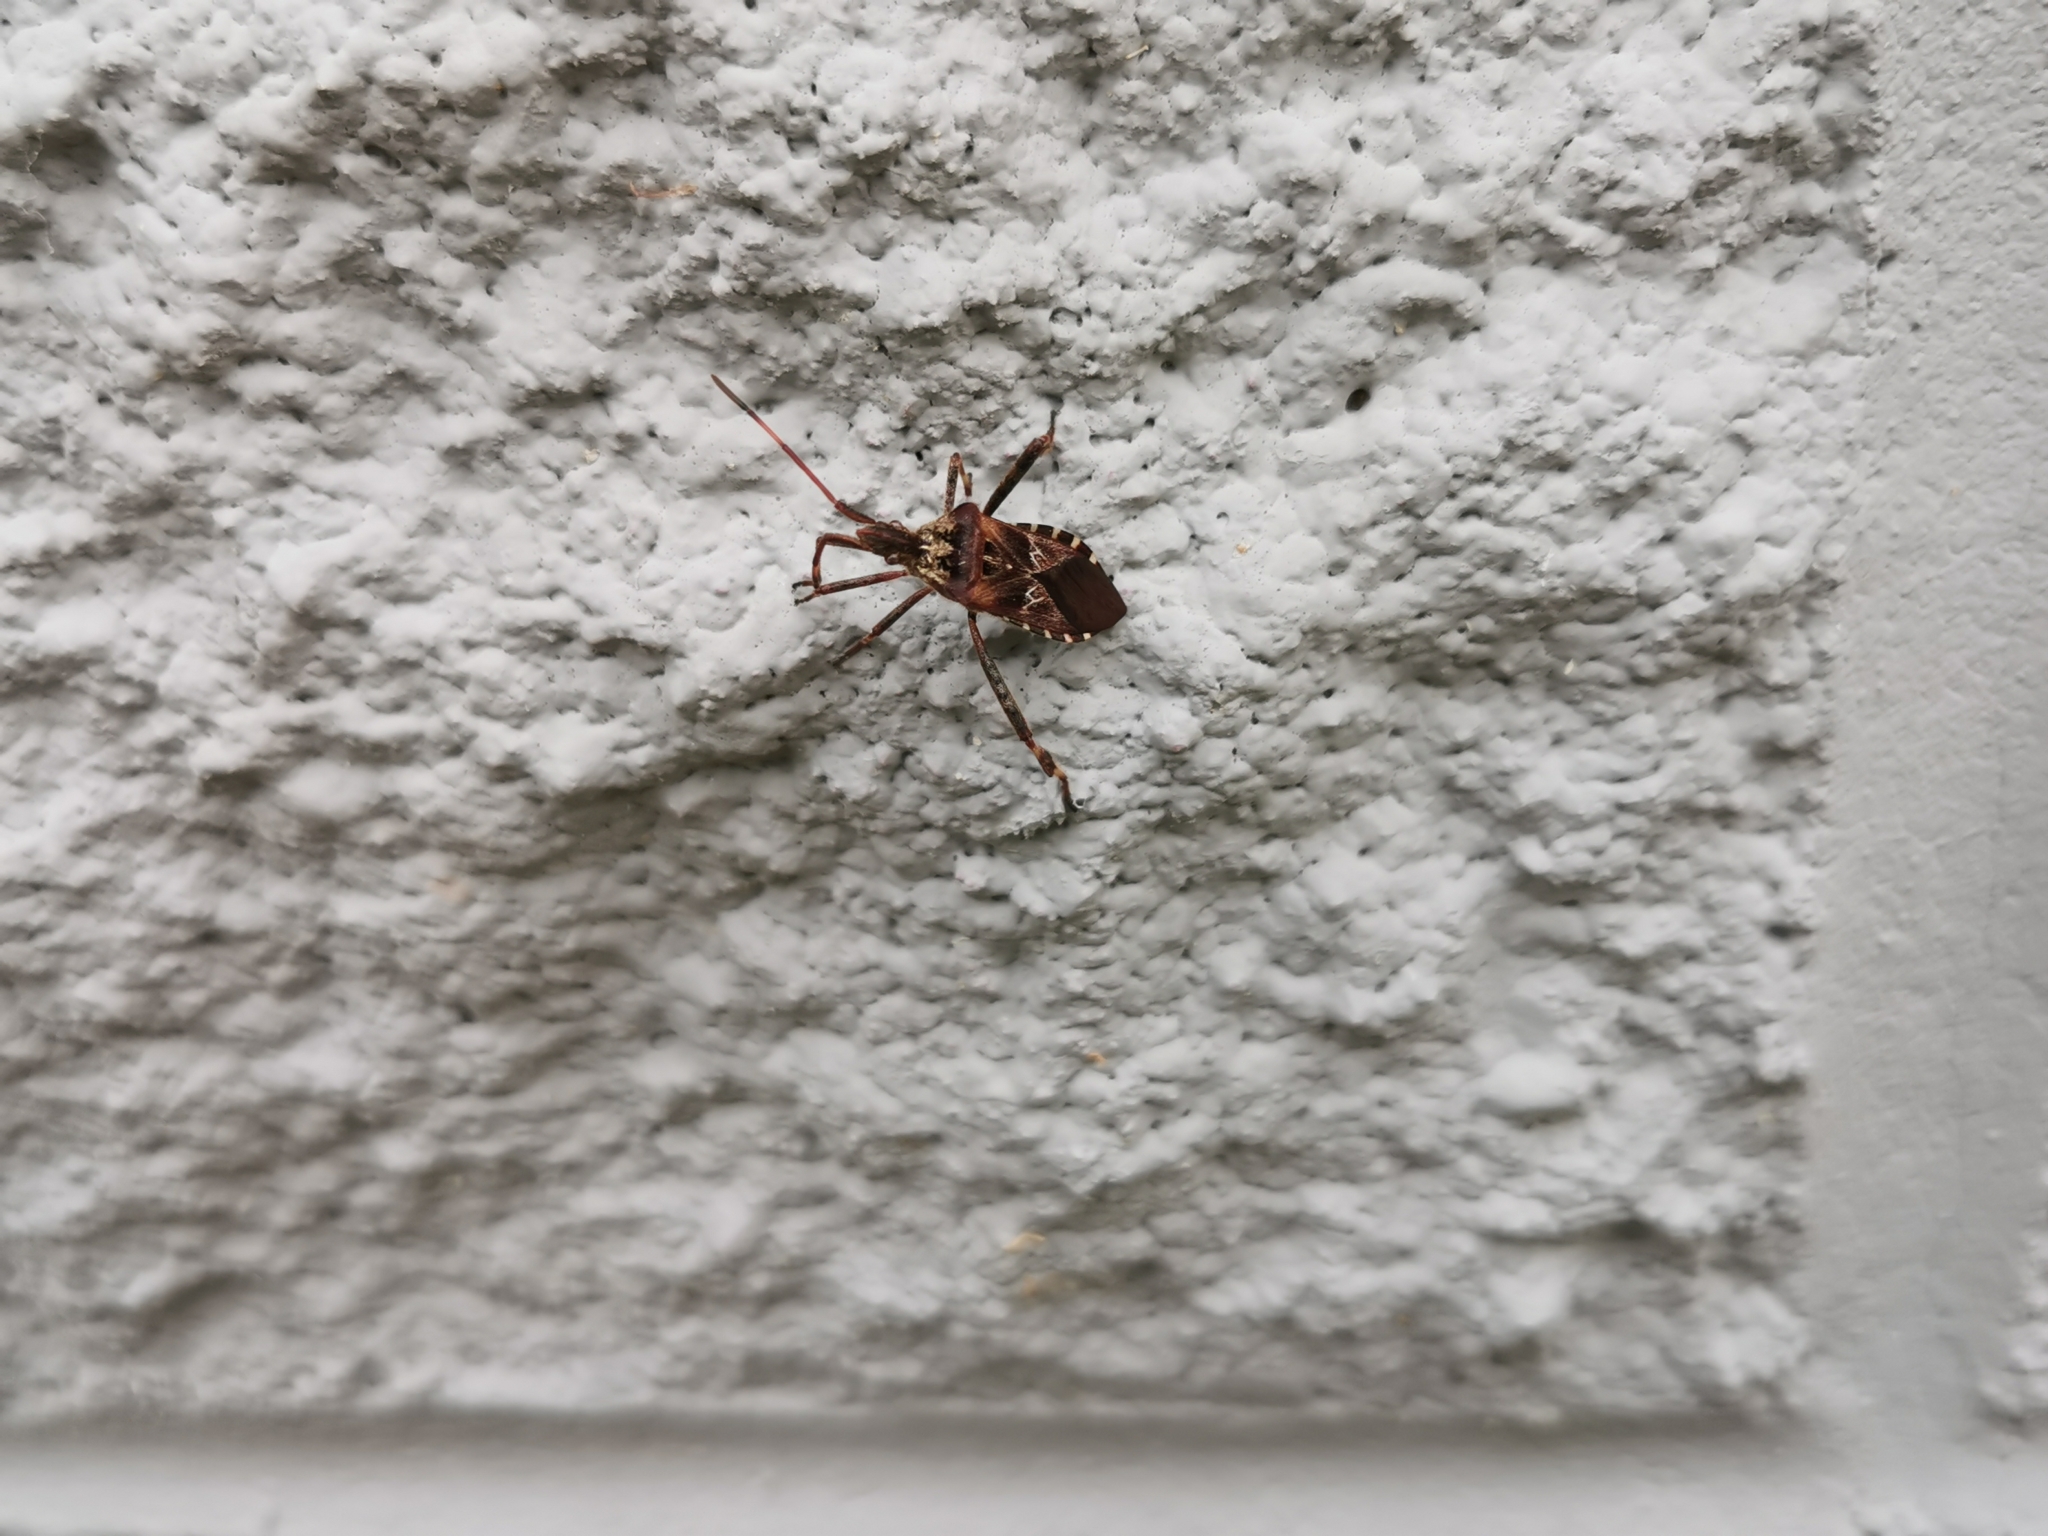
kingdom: Animalia
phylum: Arthropoda
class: Insecta
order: Hemiptera
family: Coreidae
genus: Leptoglossus
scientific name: Leptoglossus occidentalis
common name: Western conifer-seed bug
